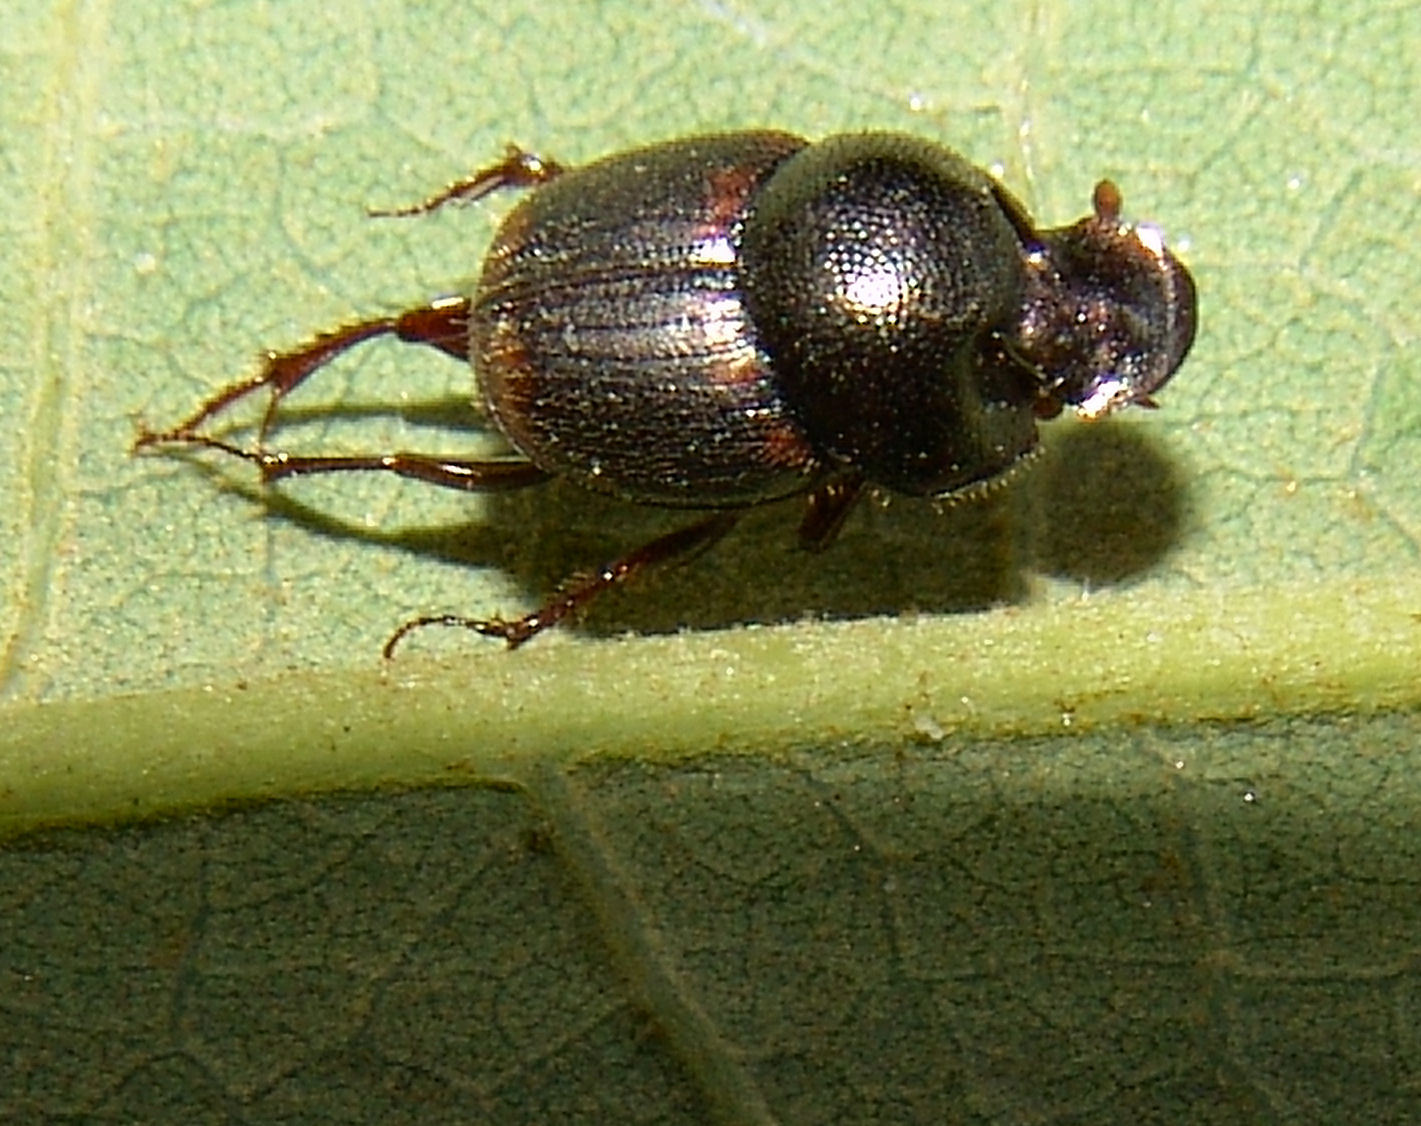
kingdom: Animalia
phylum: Arthropoda
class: Insecta
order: Coleoptera
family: Scarabaeidae
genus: Onthophagus
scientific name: Onthophagus striatulus
